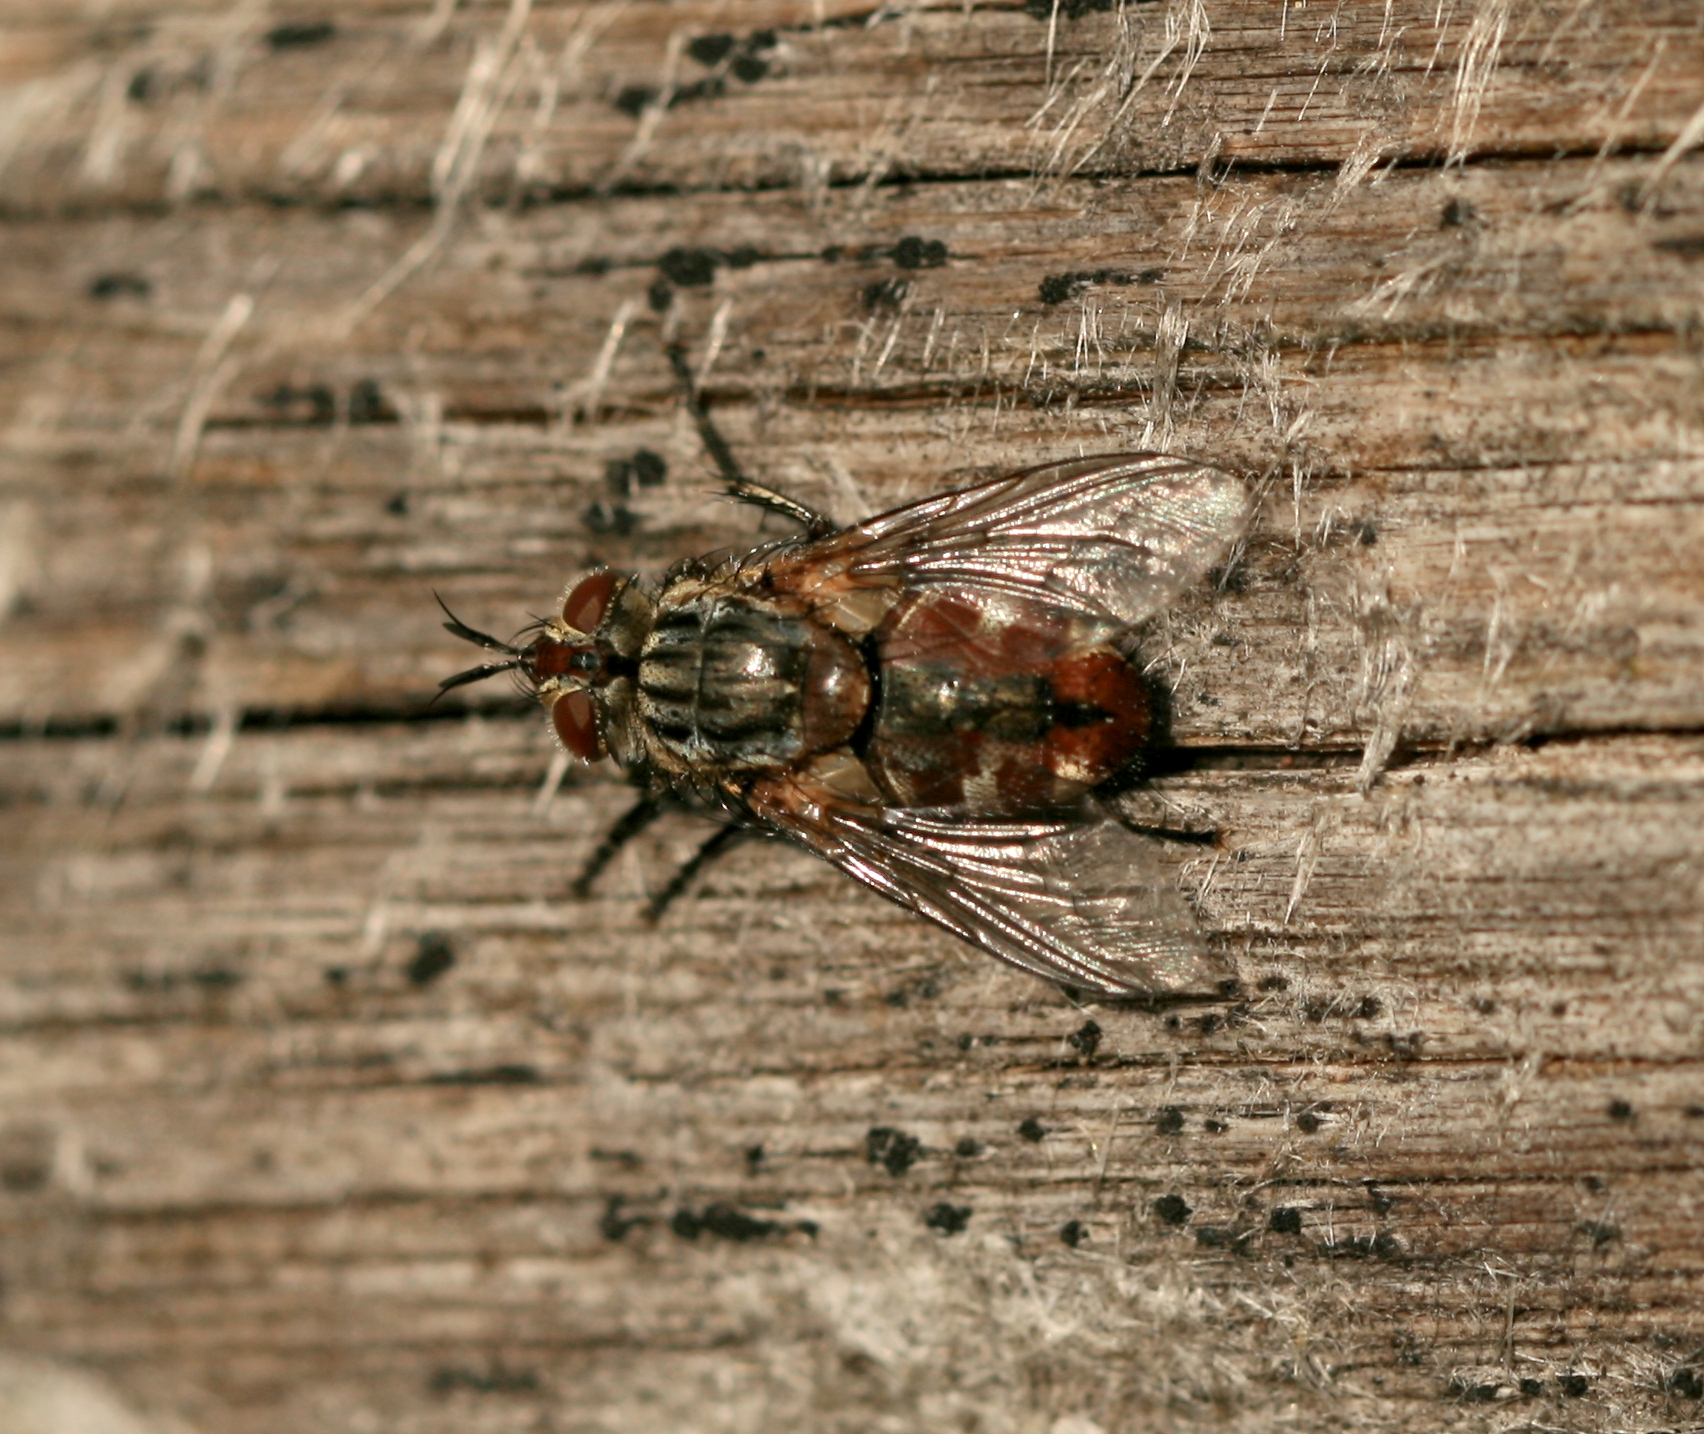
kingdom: Animalia
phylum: Arthropoda
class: Insecta
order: Diptera
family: Tachinidae
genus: Linnaemya
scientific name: Linnaemya vulpina
